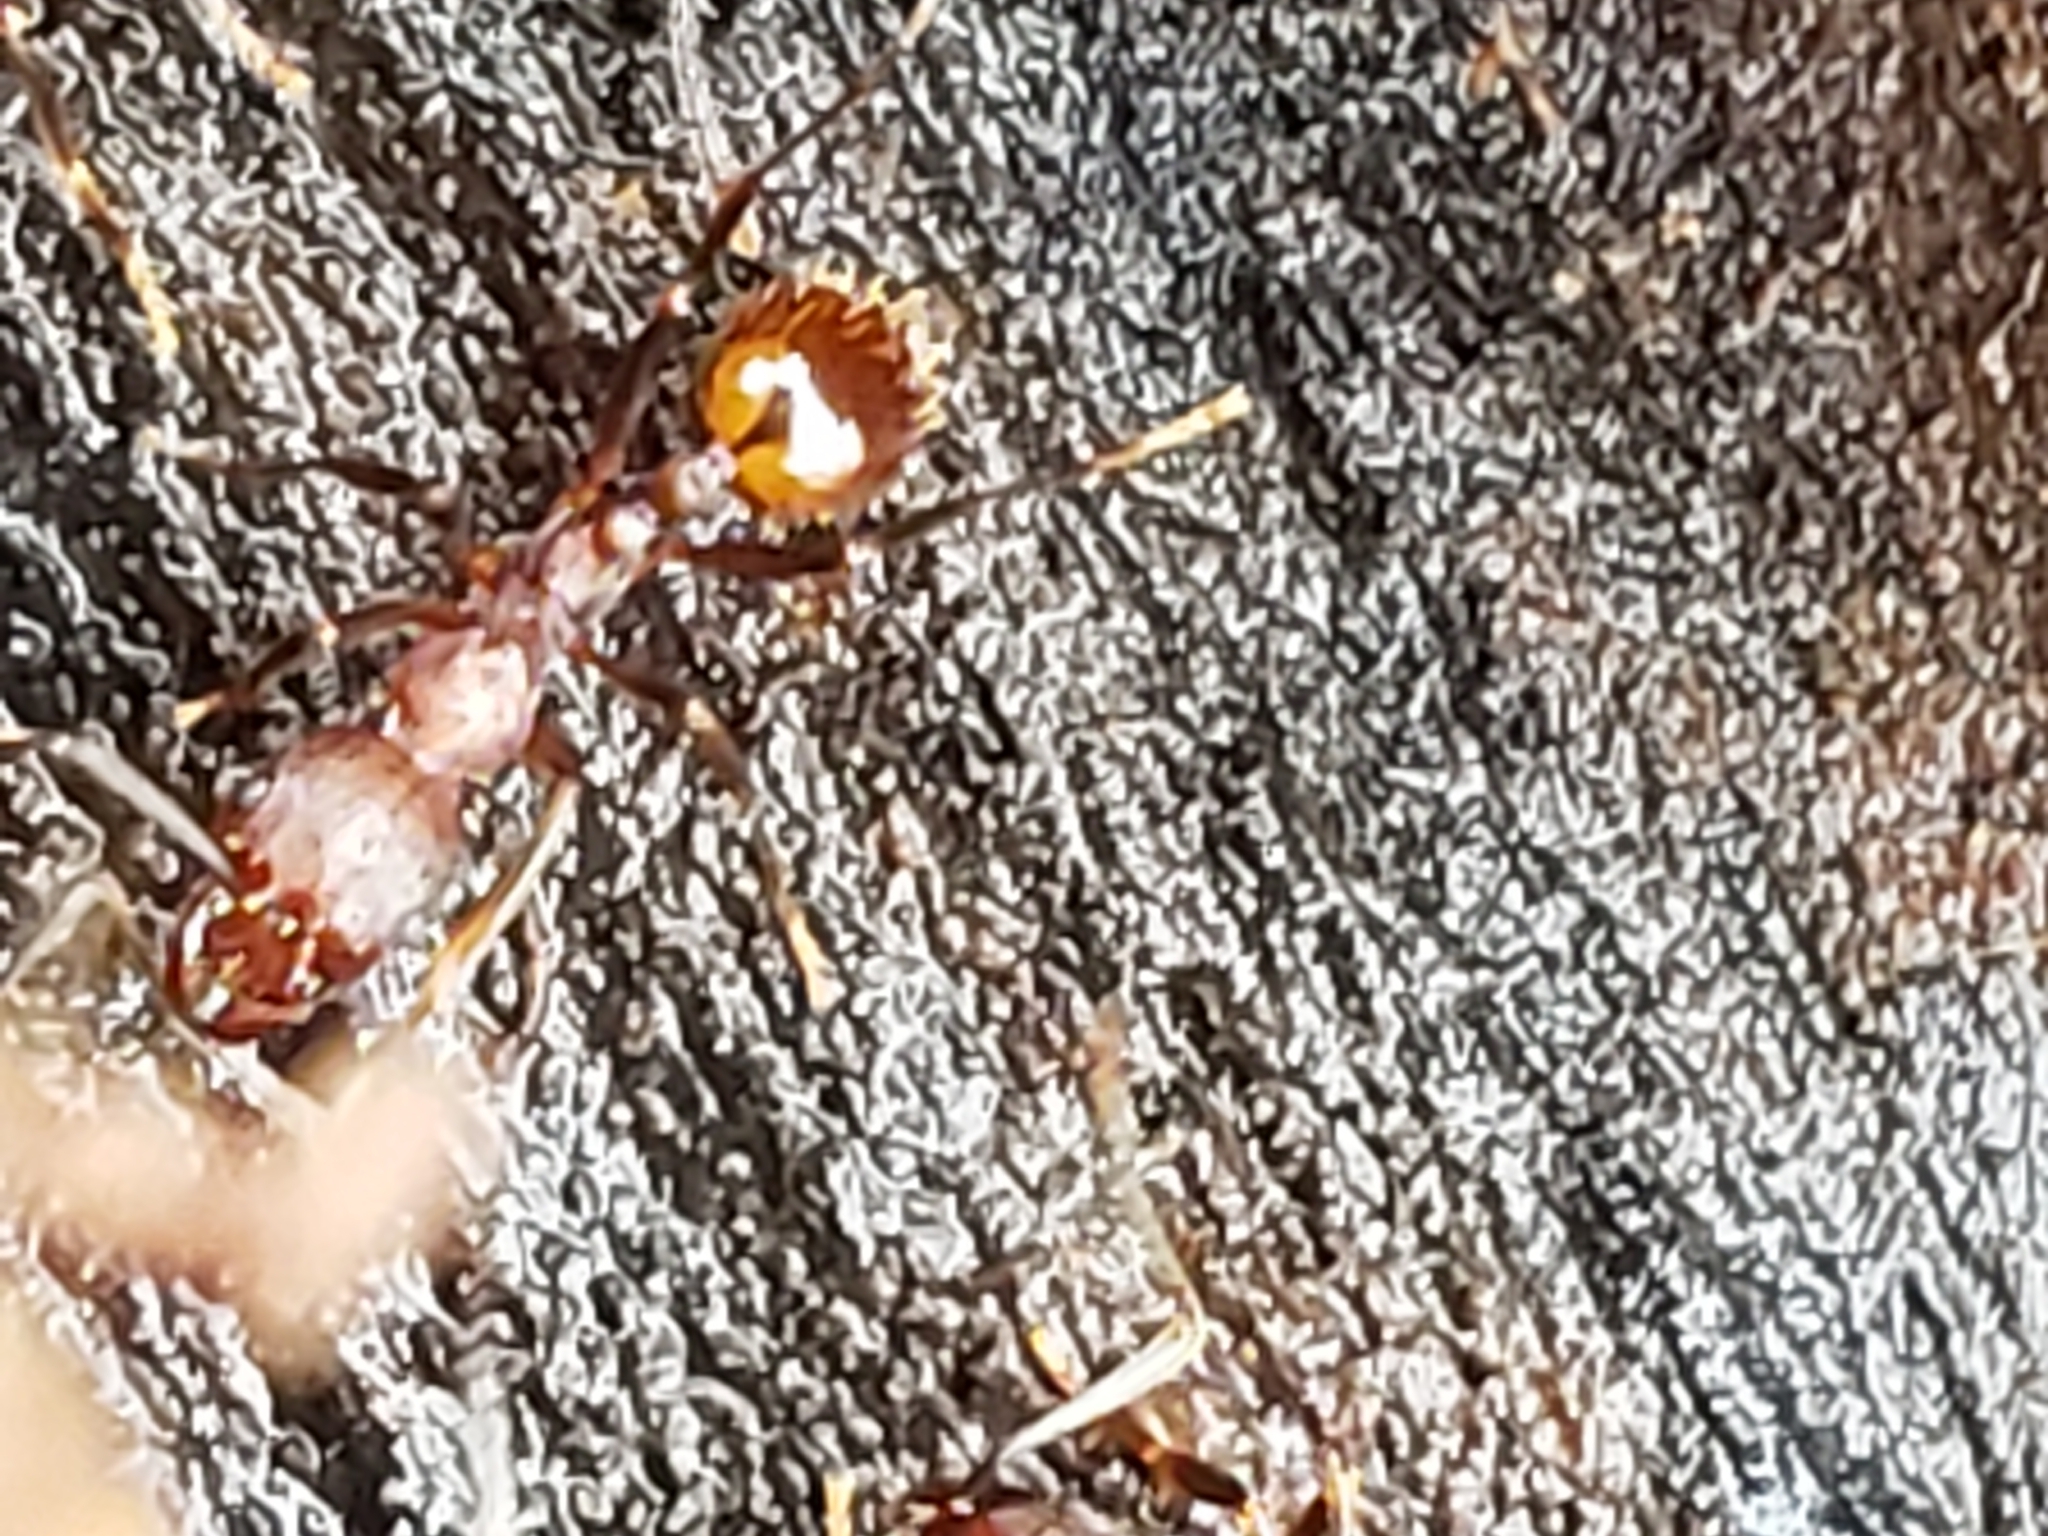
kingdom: Animalia
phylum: Arthropoda
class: Insecta
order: Hymenoptera
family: Formicidae
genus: Aphaenogaster
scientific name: Aphaenogaster fulva
